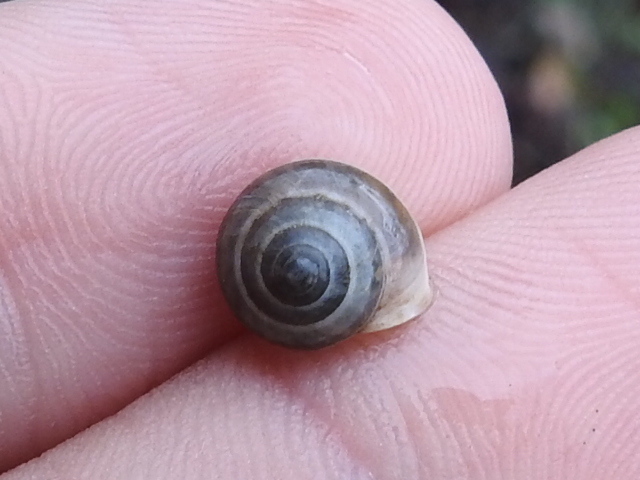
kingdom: Animalia
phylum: Mollusca
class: Gastropoda
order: Cycloneritida
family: Helicinidae
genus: Helicina
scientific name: Helicina orbiculata
